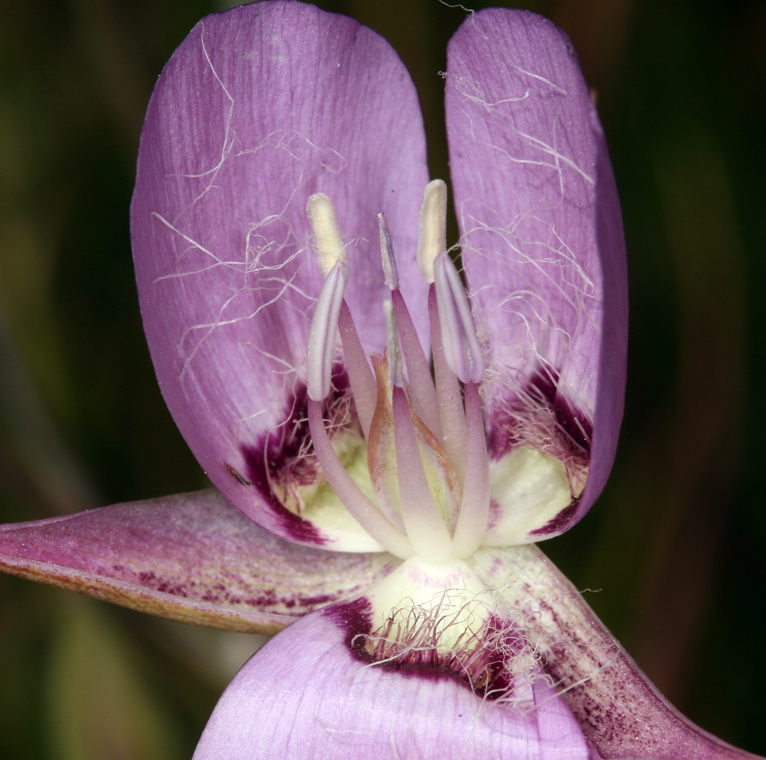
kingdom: Plantae
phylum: Tracheophyta
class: Liliopsida
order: Liliales
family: Liliaceae
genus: Calochortus
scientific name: Calochortus longibarbatus
